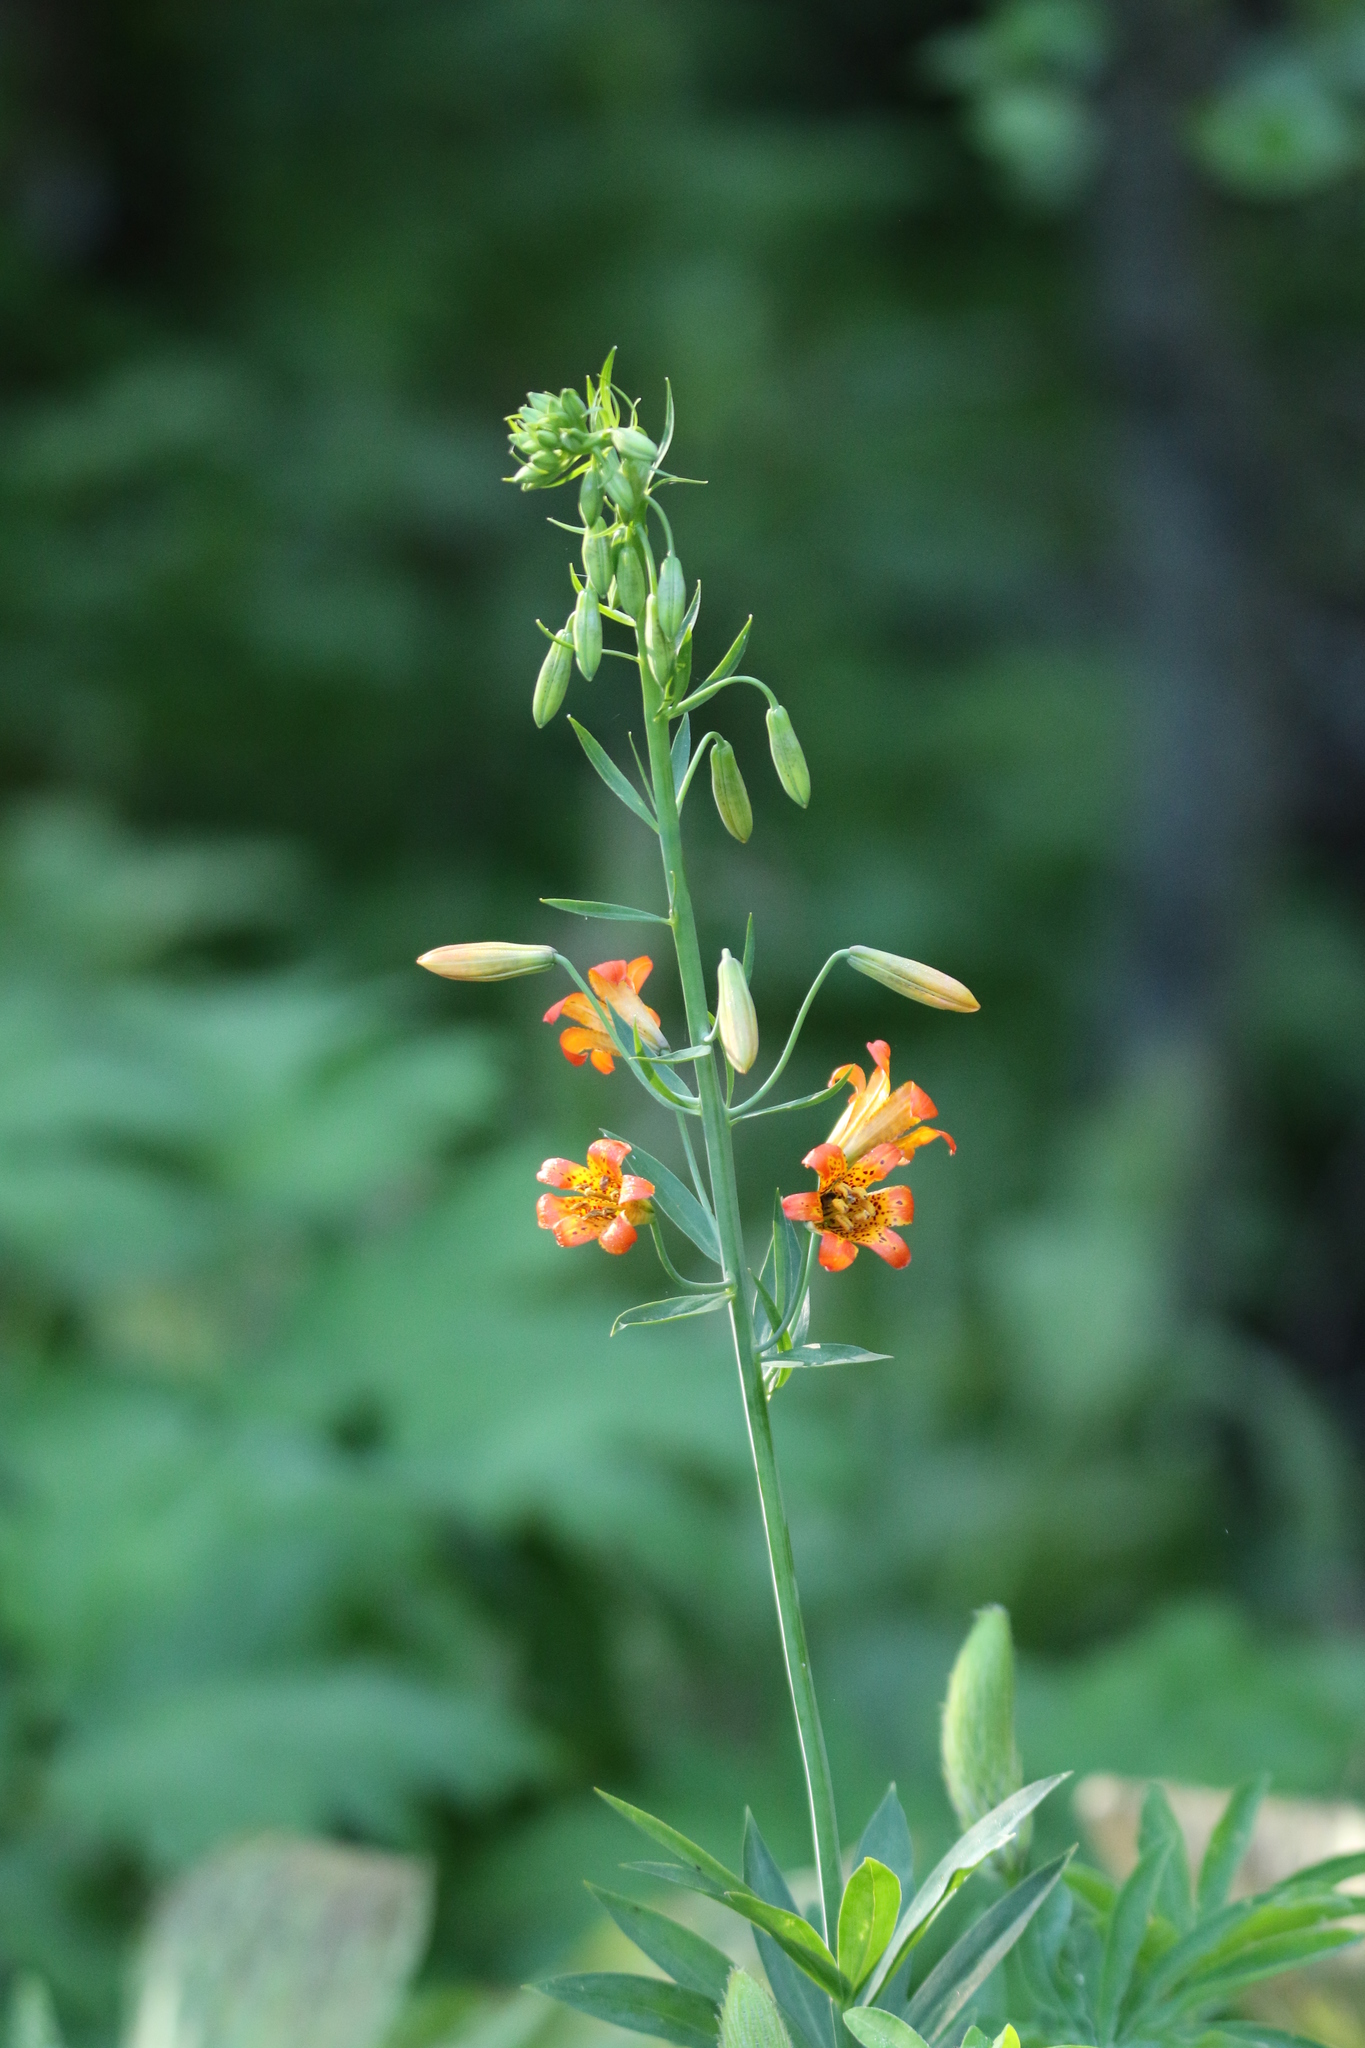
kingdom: Plantae
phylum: Tracheophyta
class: Liliopsida
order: Liliales
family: Liliaceae
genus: Lilium
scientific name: Lilium parvum
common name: Alpine lily
